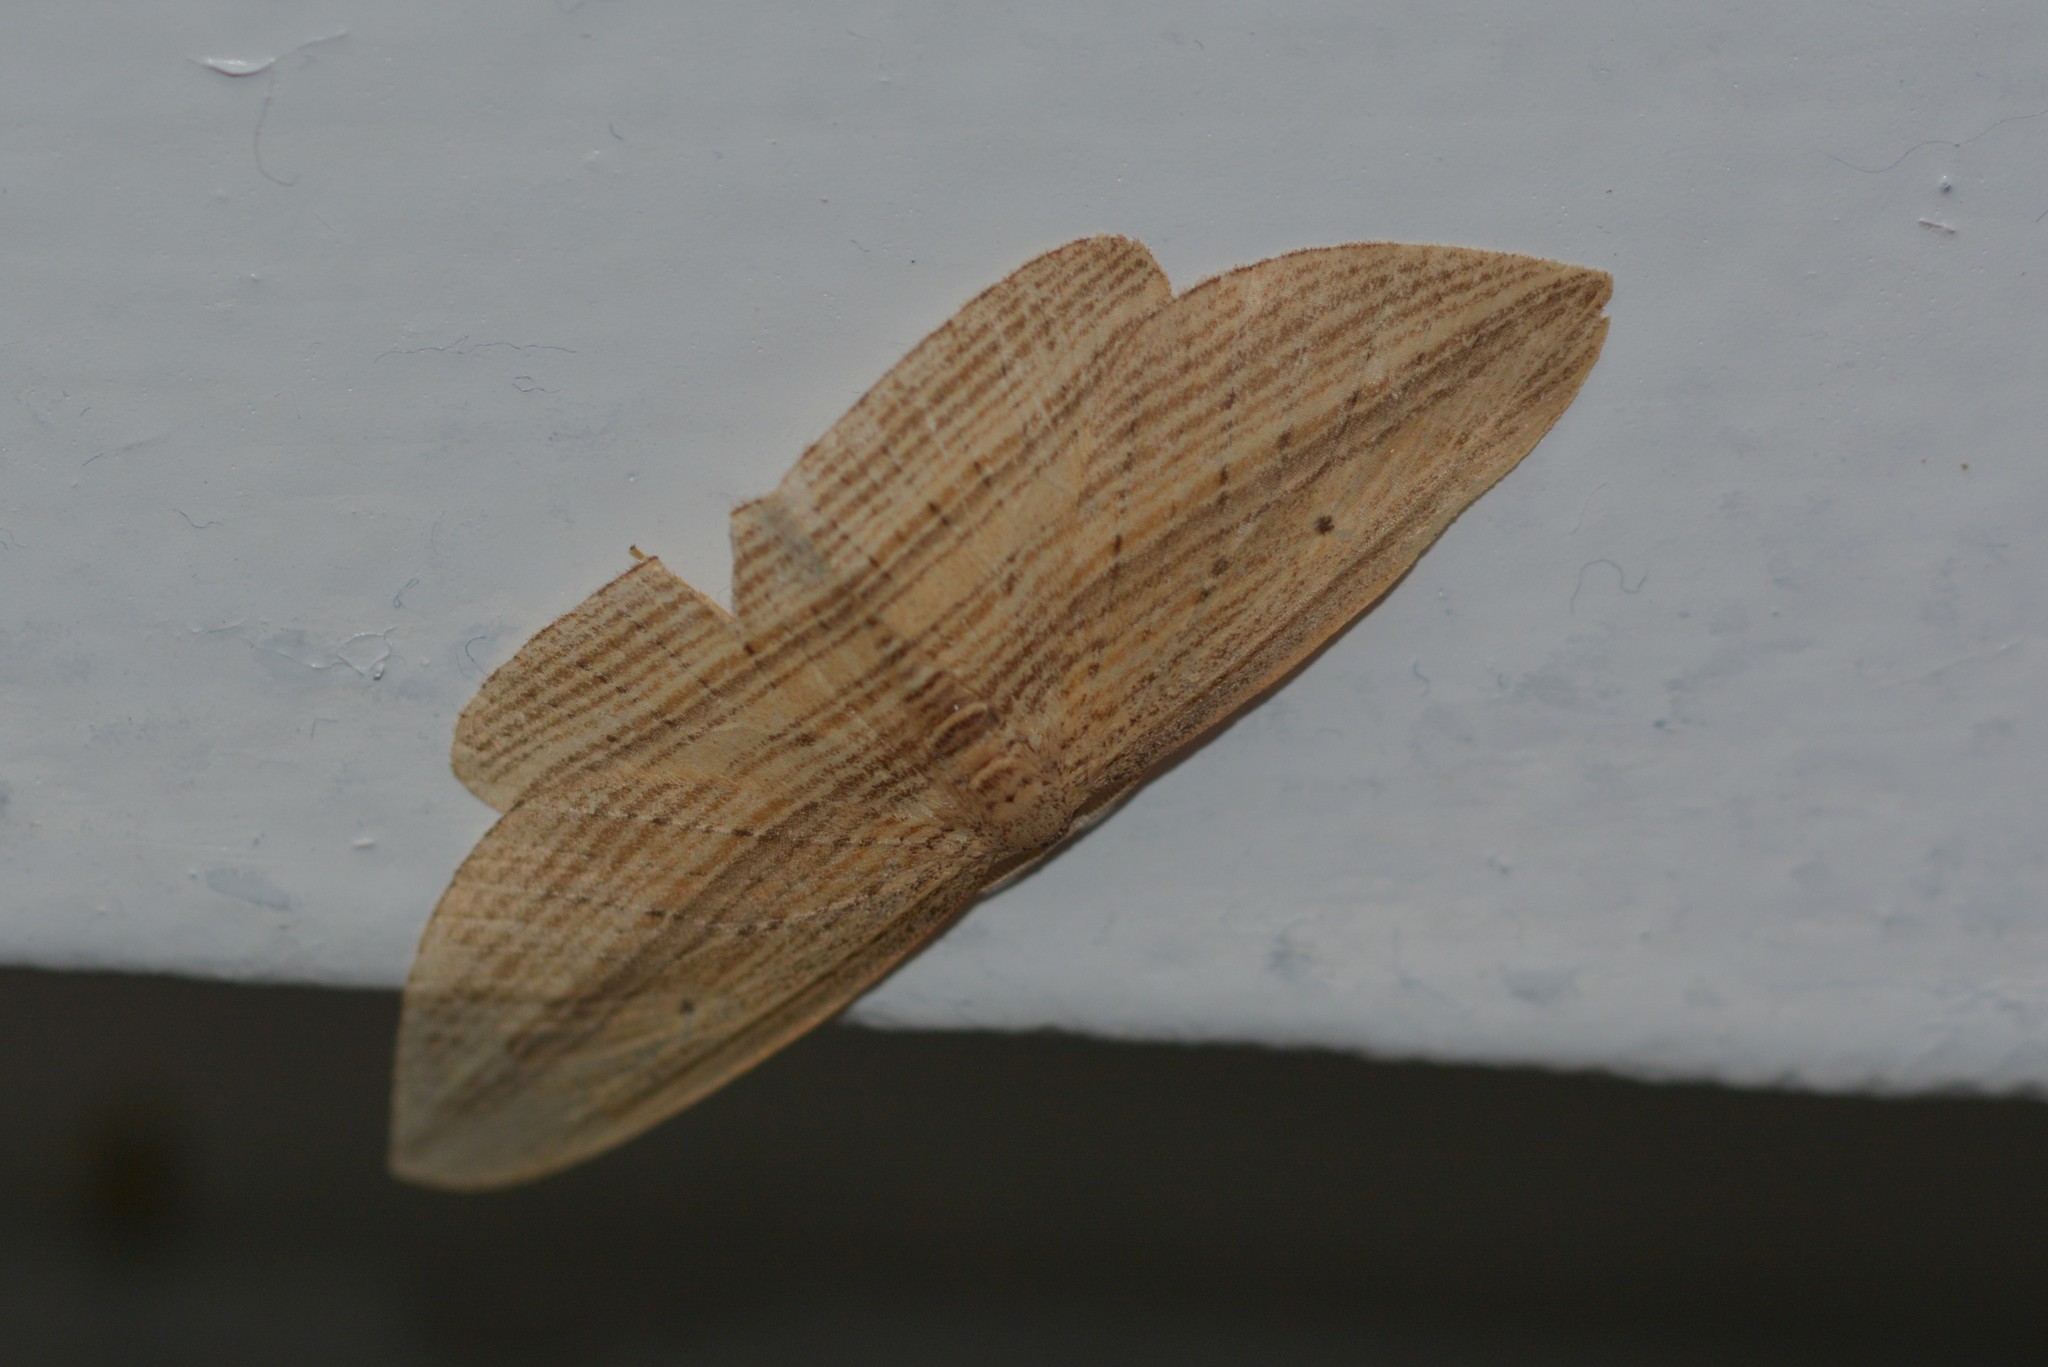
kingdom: Animalia
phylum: Arthropoda
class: Insecta
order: Lepidoptera
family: Geometridae
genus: Epiphryne
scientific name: Epiphryne verriculata
